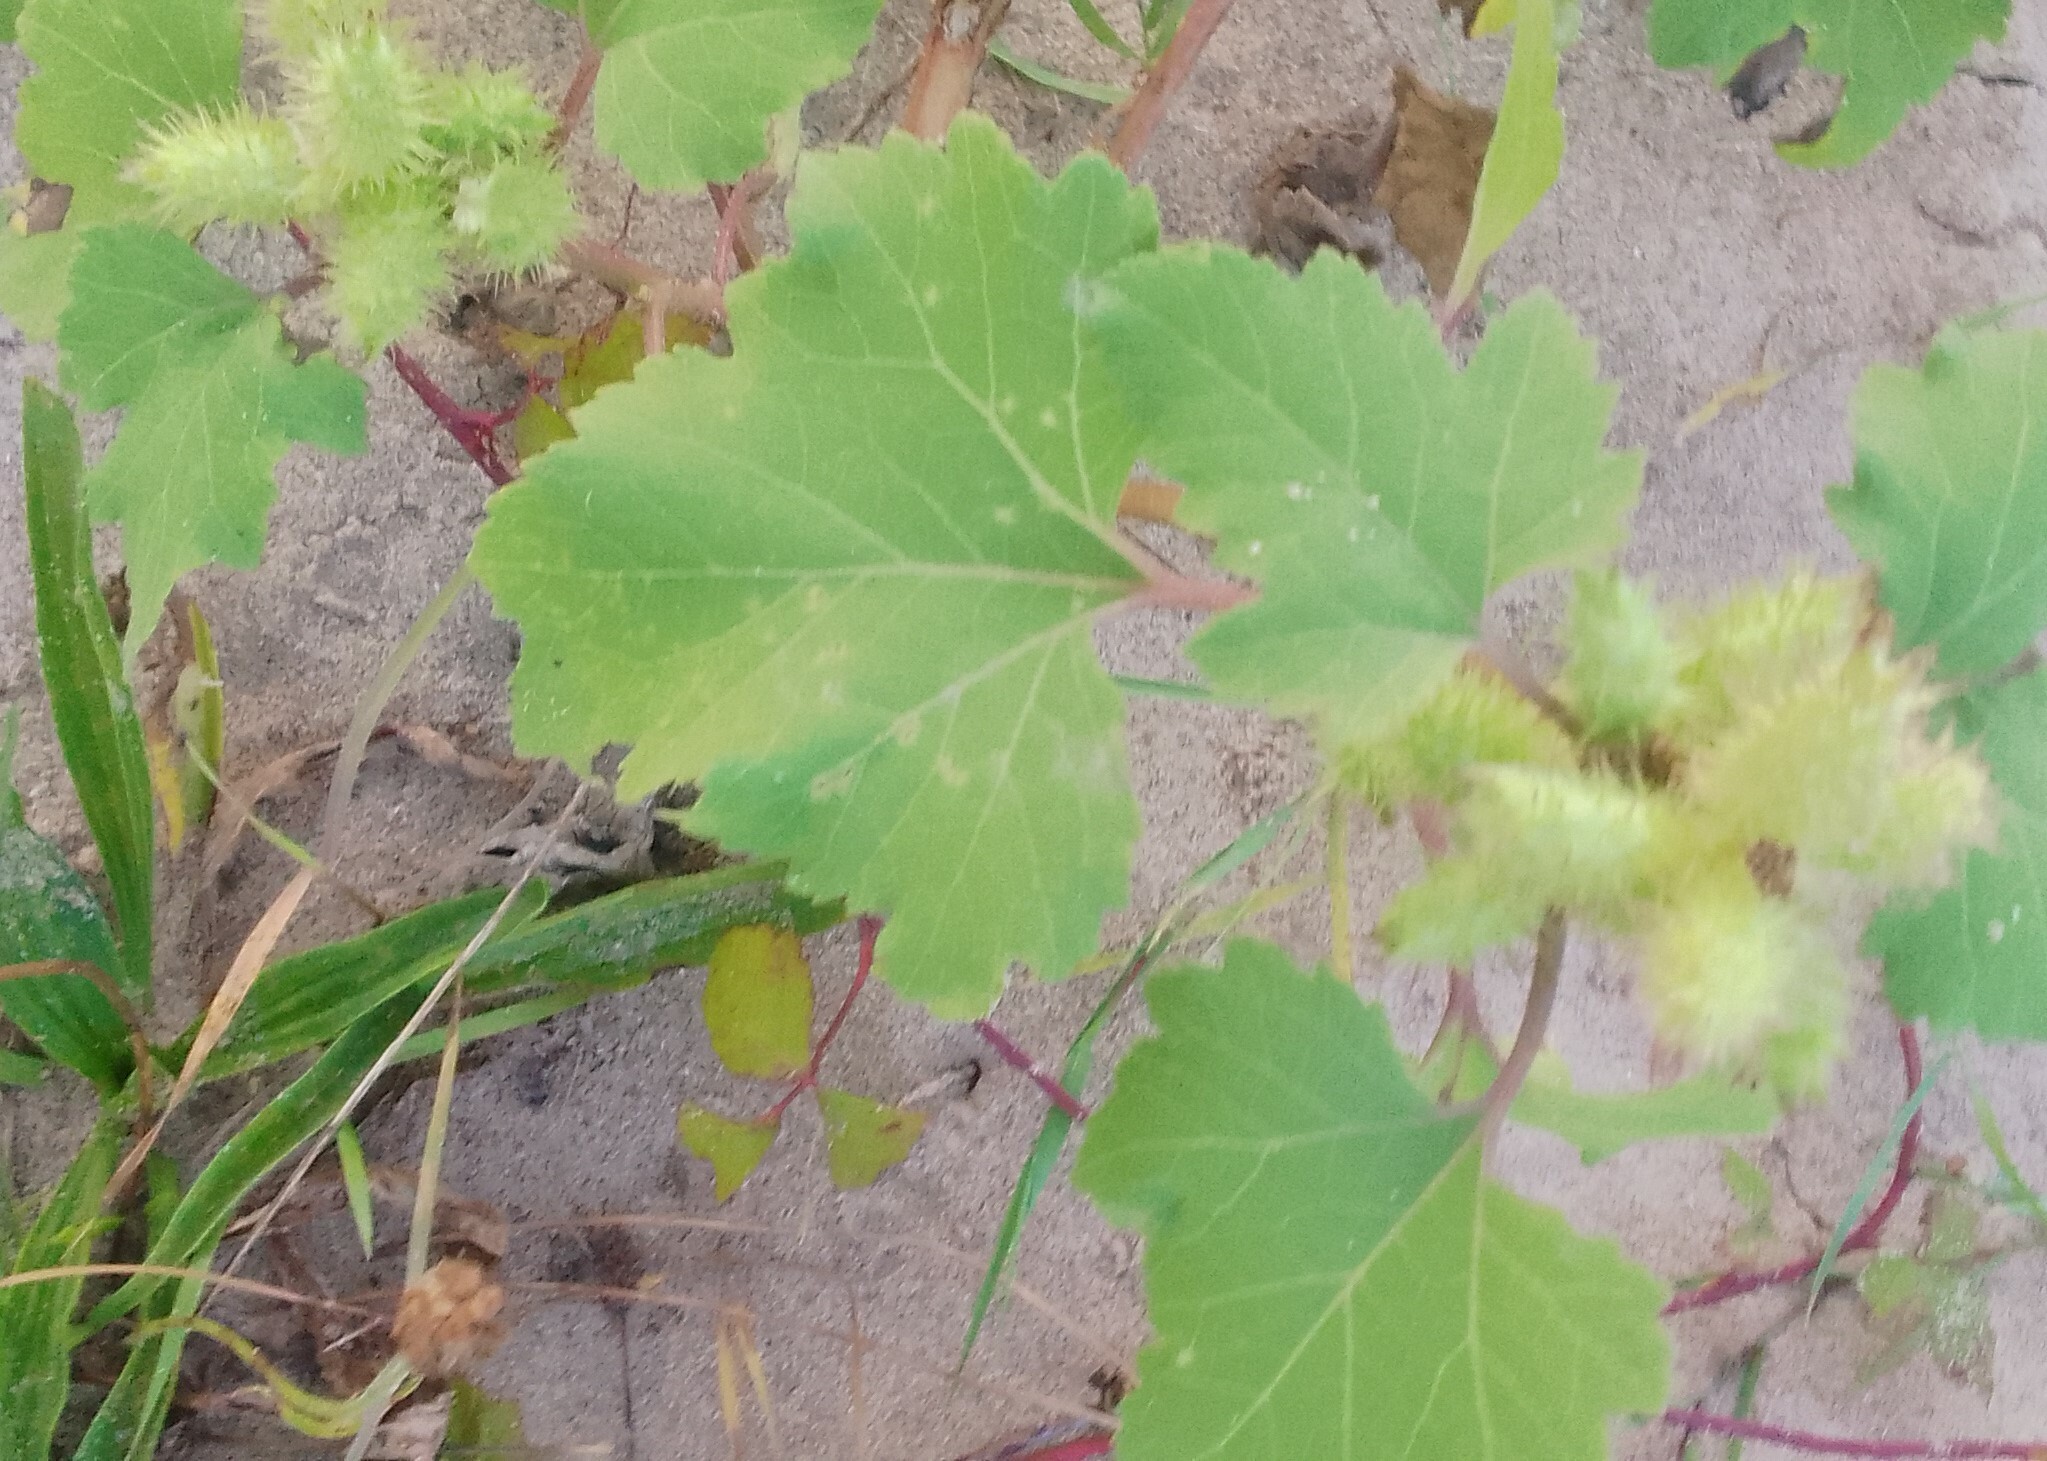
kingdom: Plantae
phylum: Tracheophyta
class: Magnoliopsida
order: Asterales
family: Asteraceae
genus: Xanthium
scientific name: Xanthium orientale
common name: Californian burr
